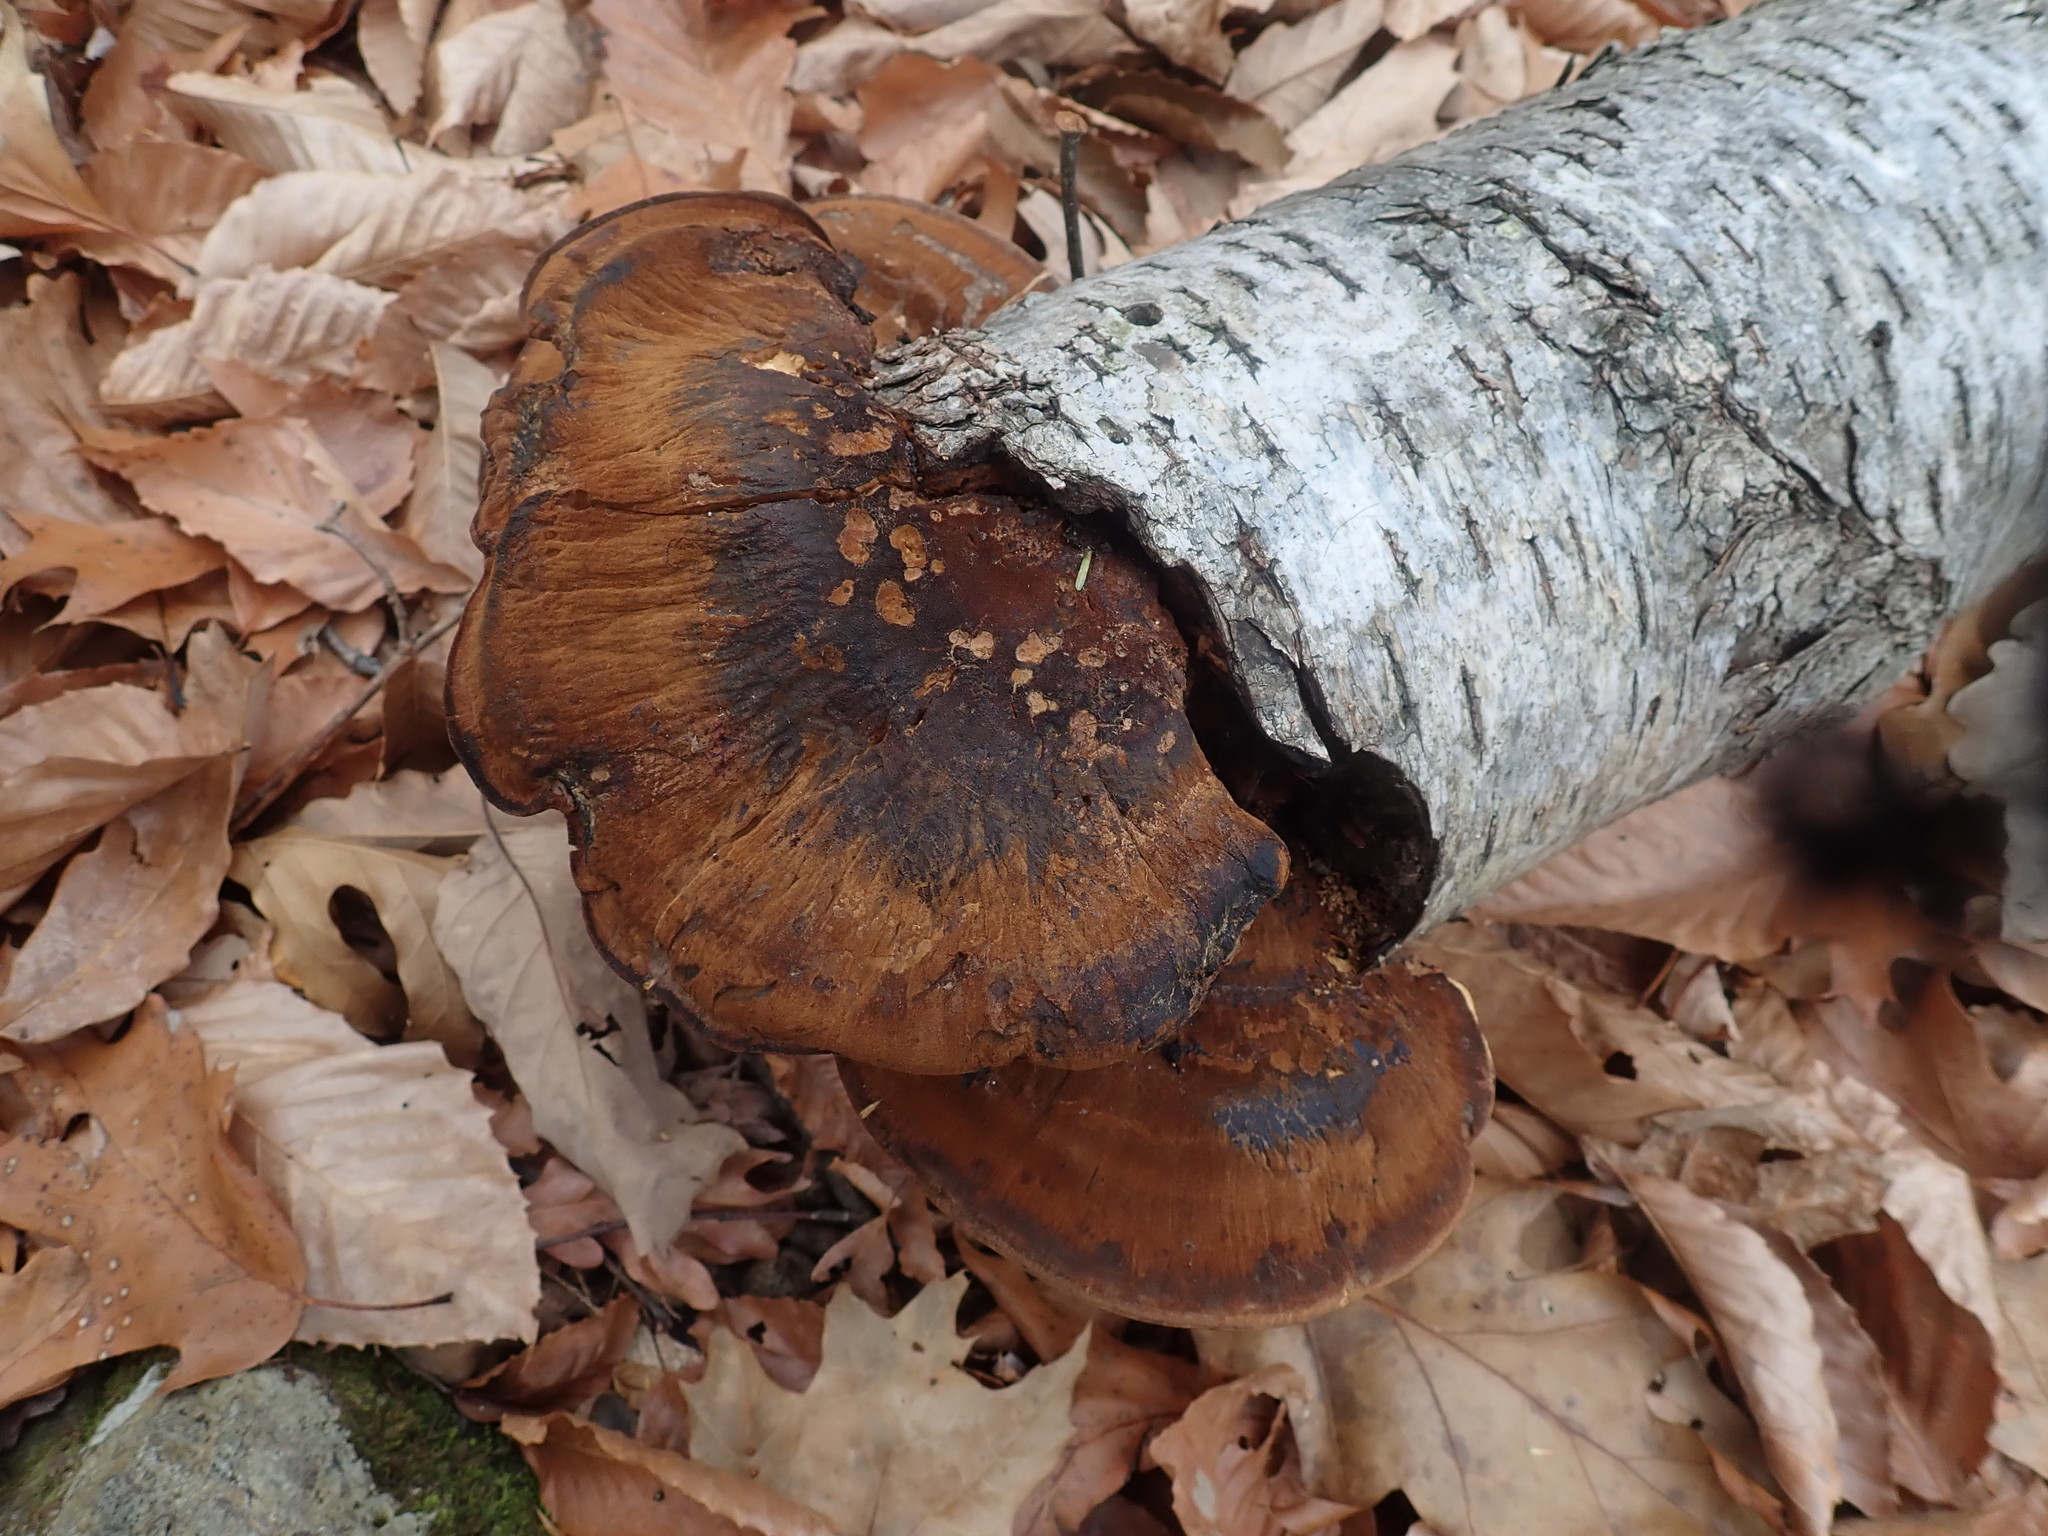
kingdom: Fungi
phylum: Basidiomycota
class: Agaricomycetes
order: Polyporales
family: Ischnodermataceae
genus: Ischnoderma
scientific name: Ischnoderma resinosum
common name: Resinous polypore
